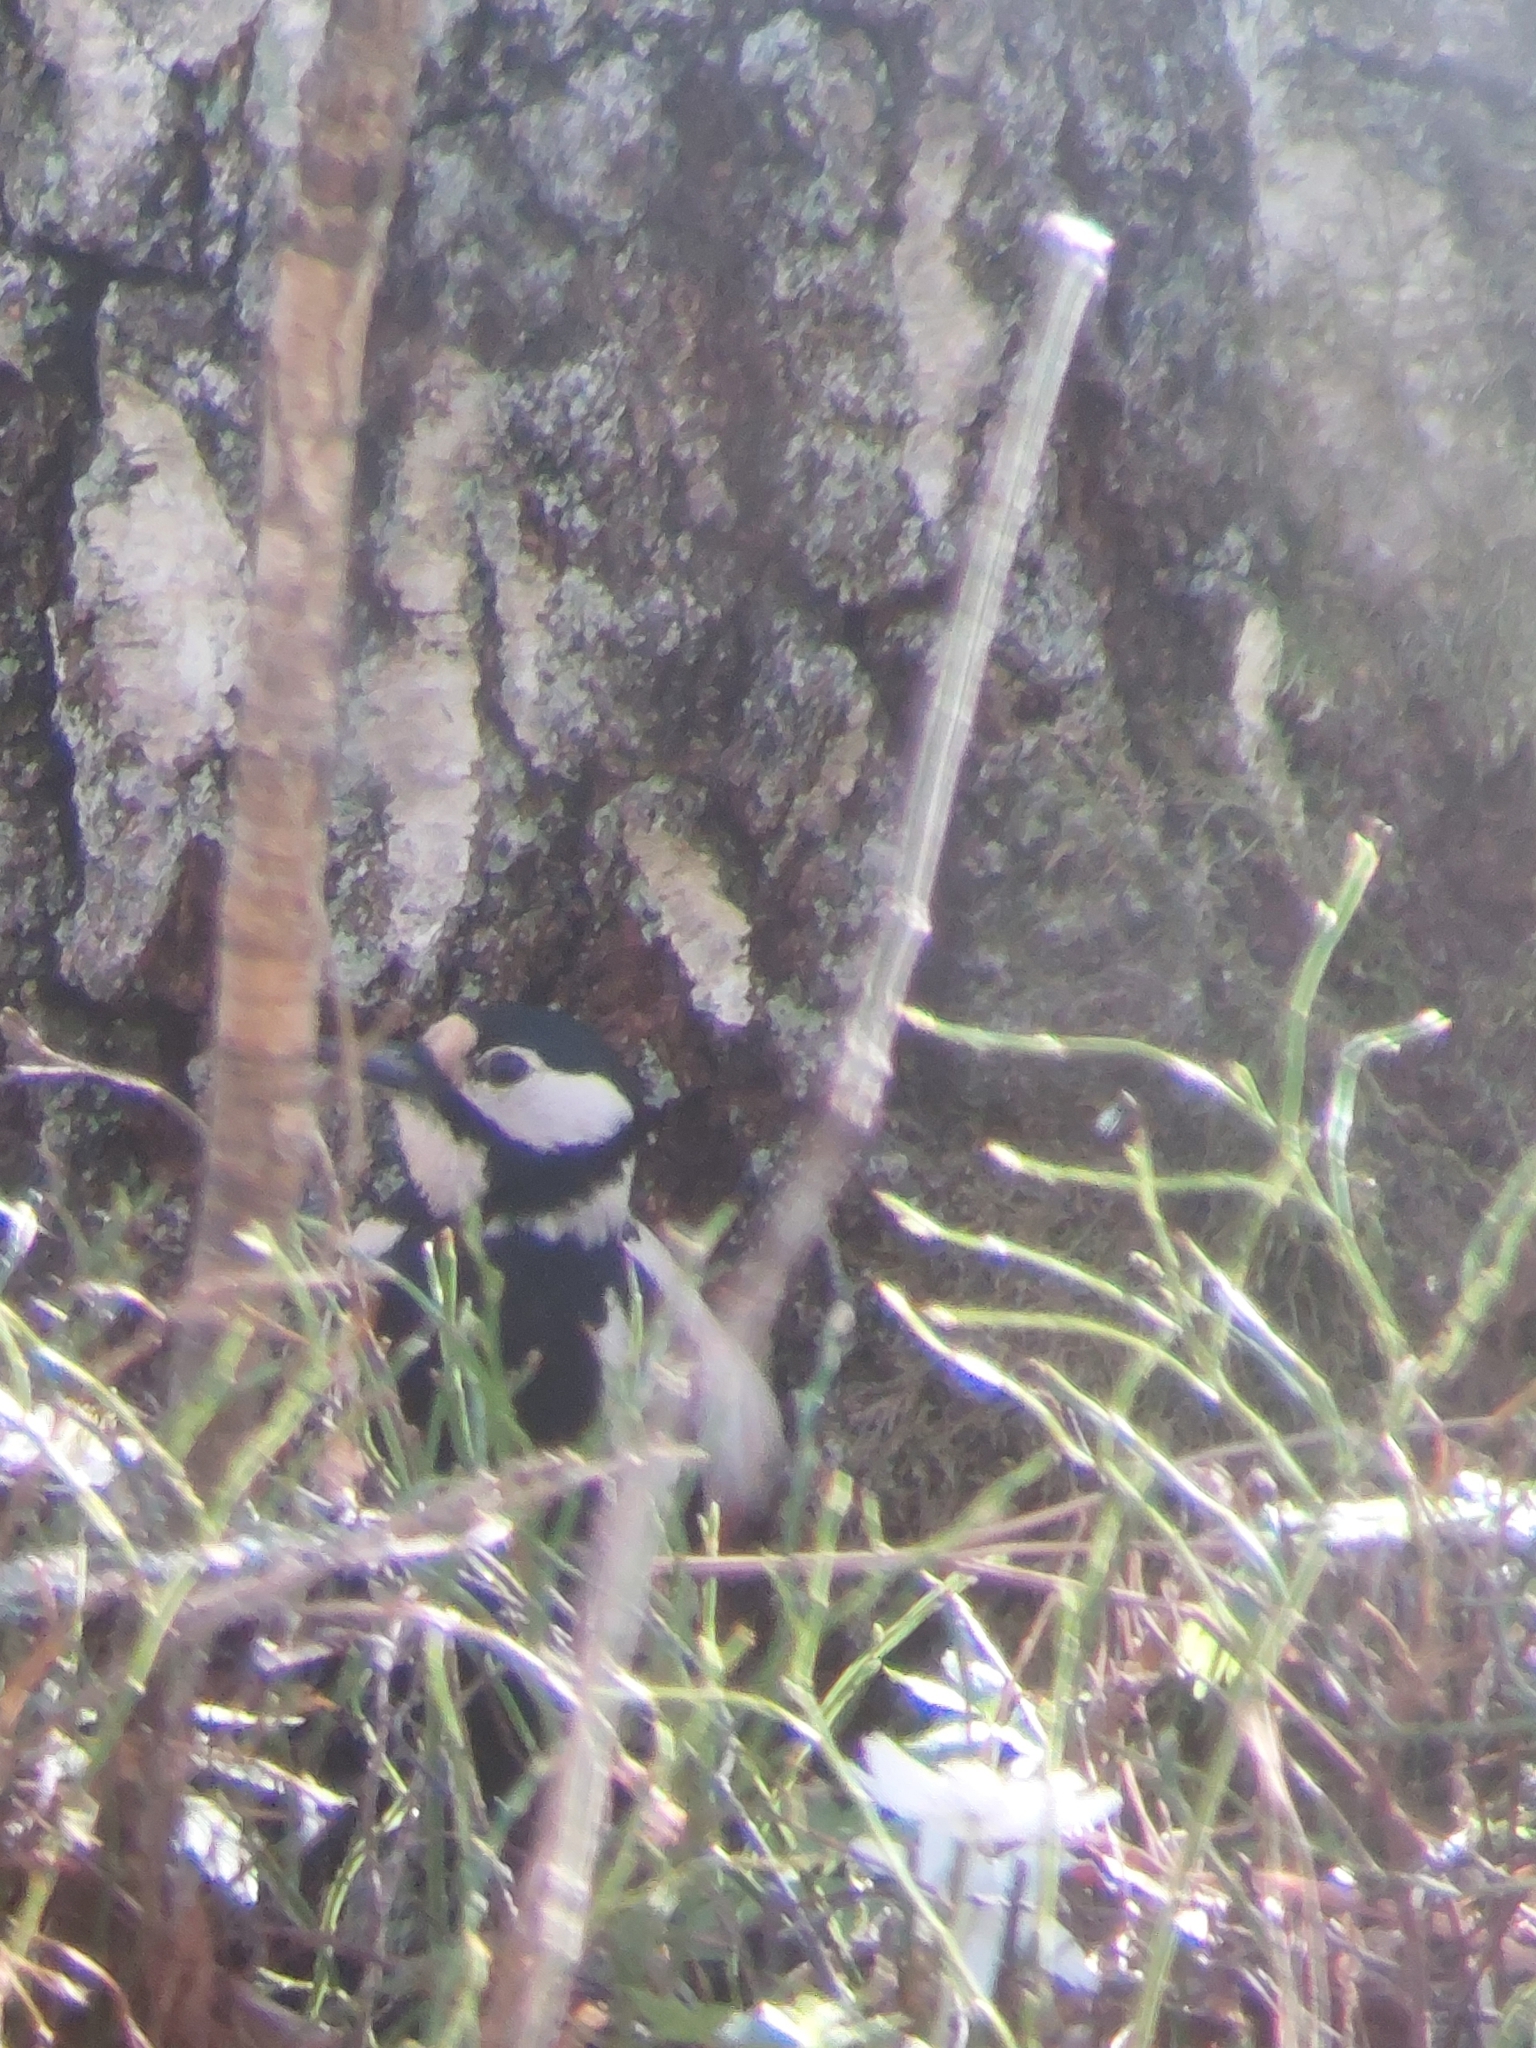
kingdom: Animalia
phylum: Chordata
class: Aves
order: Piciformes
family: Picidae
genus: Dendrocopos
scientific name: Dendrocopos major
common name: Great spotted woodpecker
